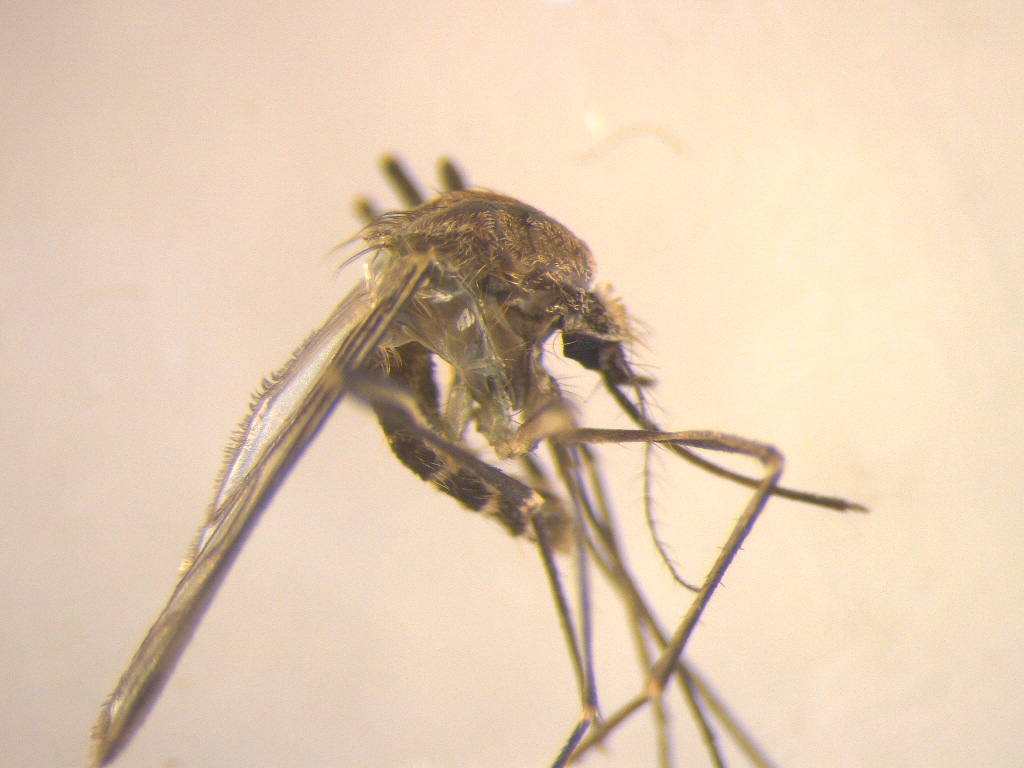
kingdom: Animalia
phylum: Arthropoda
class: Insecta
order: Diptera
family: Culicidae
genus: Culex
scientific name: Culex pervigilans
